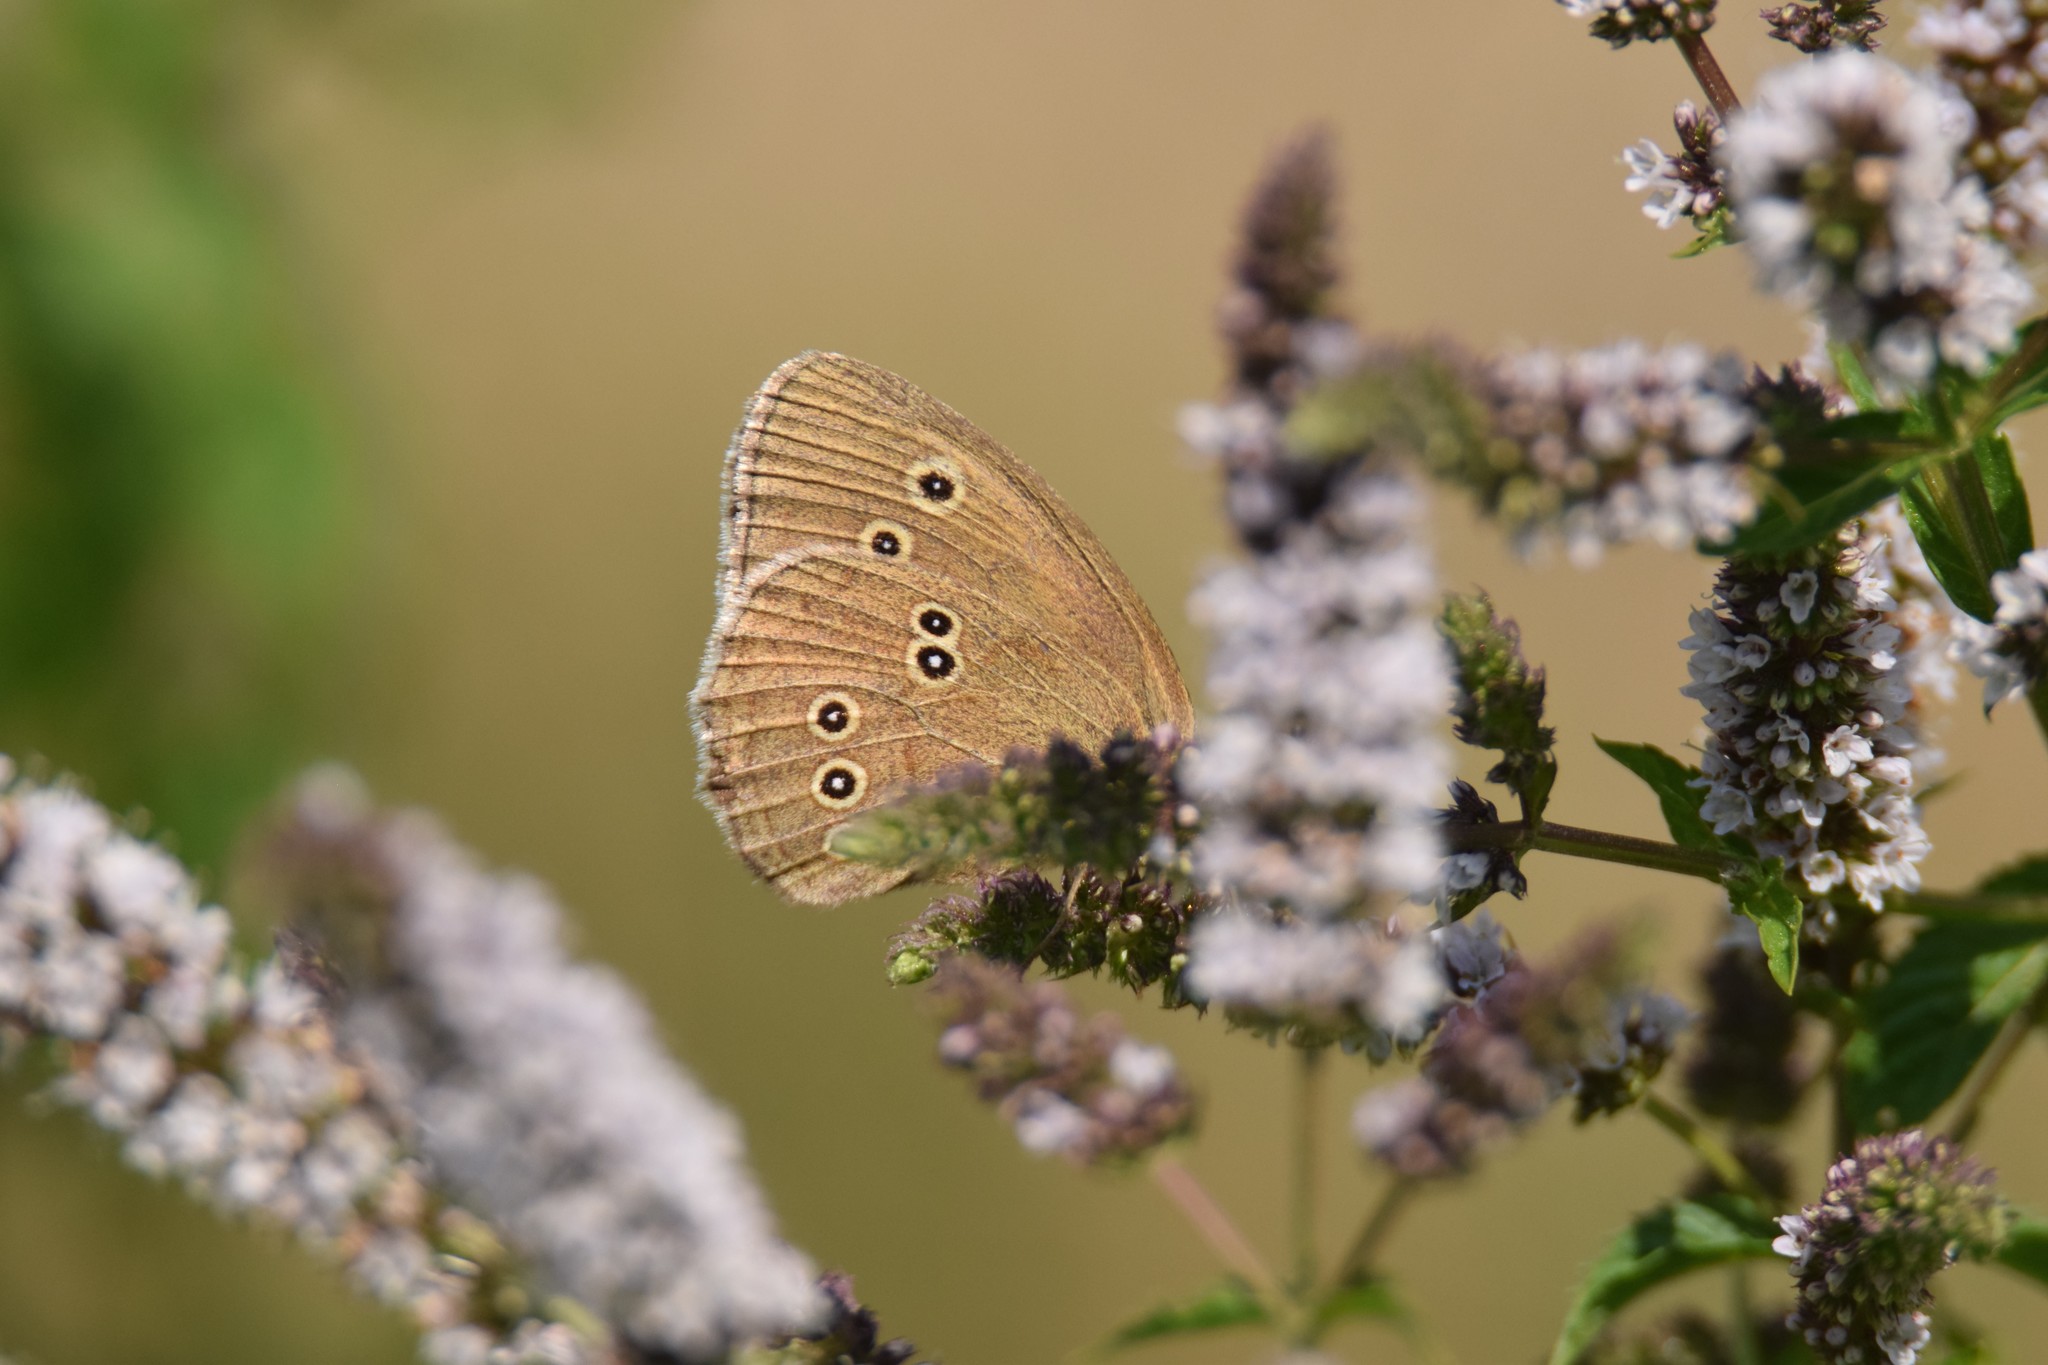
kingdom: Animalia
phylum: Arthropoda
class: Insecta
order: Lepidoptera
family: Nymphalidae
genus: Aphantopus
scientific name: Aphantopus hyperantus
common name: Ringlet
